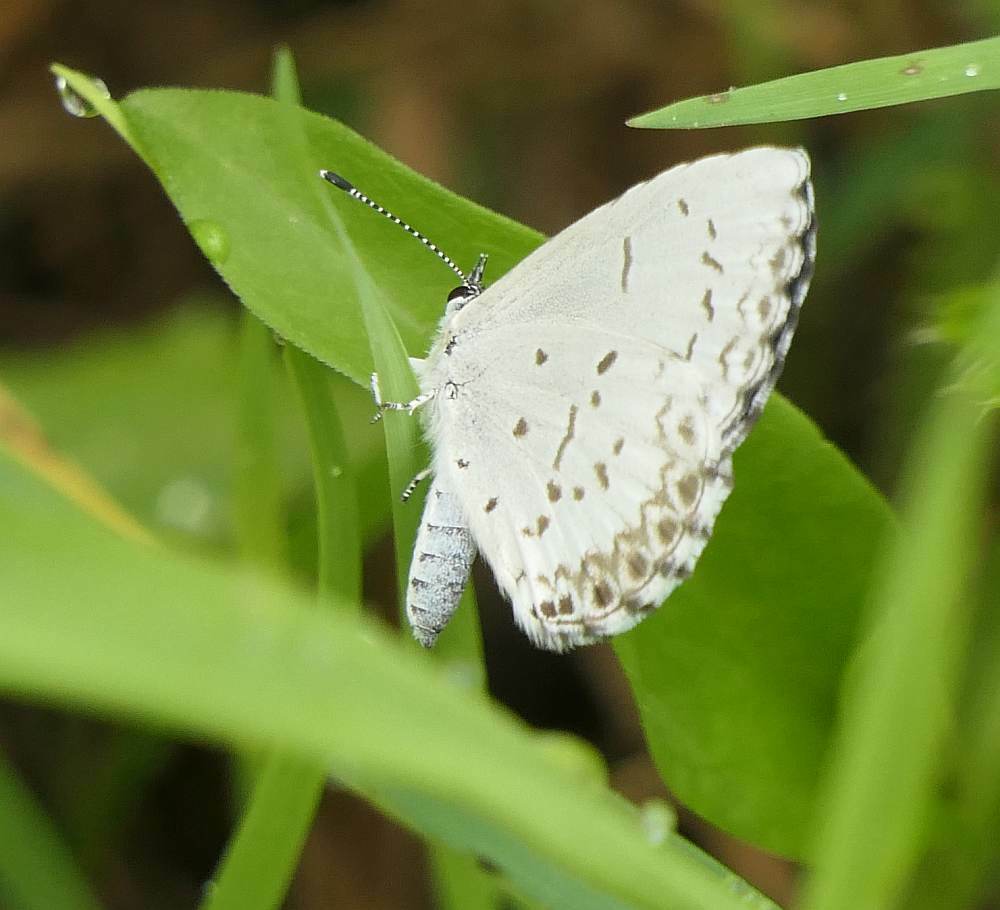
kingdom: Animalia
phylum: Arthropoda
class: Insecta
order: Lepidoptera
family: Lycaenidae
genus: Celastrina
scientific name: Celastrina lucia
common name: Lucia azure
